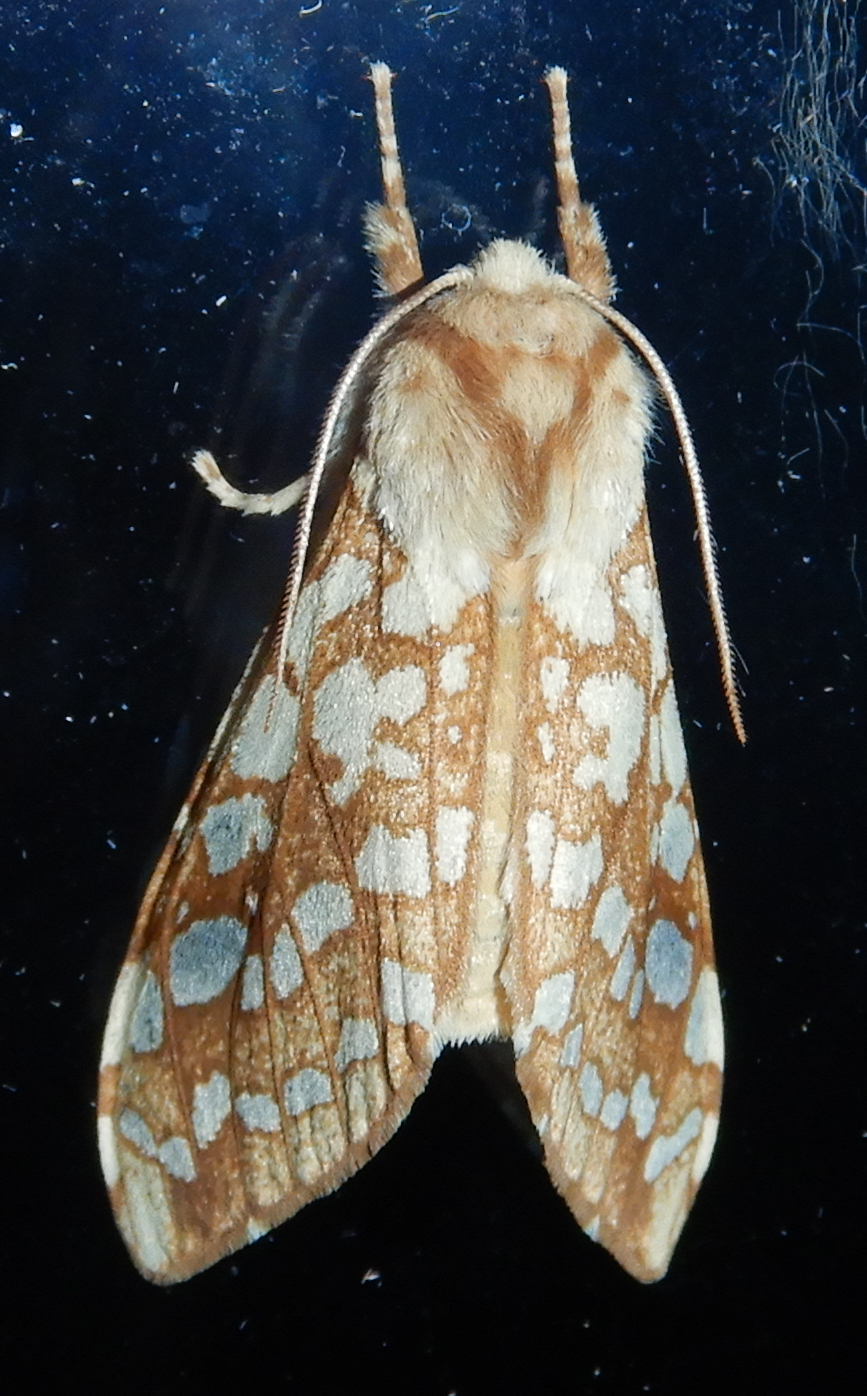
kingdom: Animalia
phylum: Arthropoda
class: Insecta
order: Lepidoptera
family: Erebidae
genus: Lophocampa
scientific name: Lophocampa caryae
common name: Hickory tussock moth
